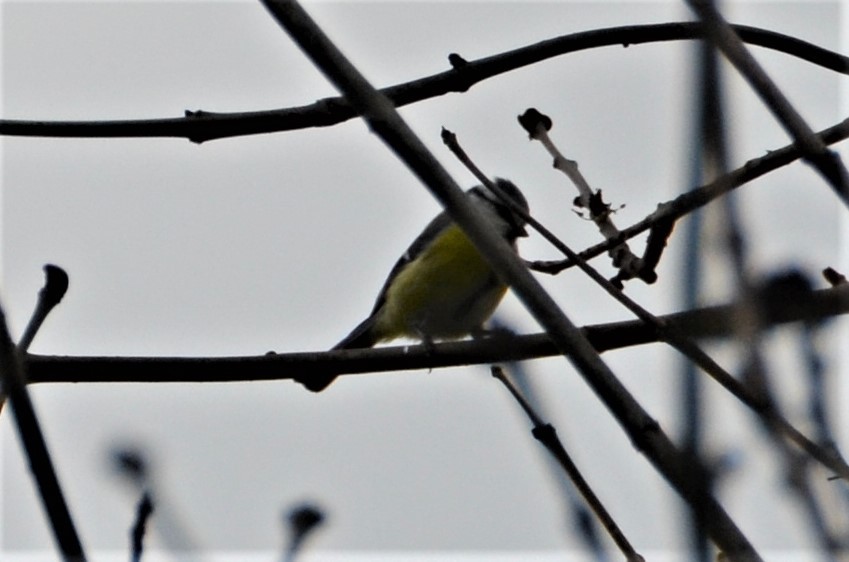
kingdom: Animalia
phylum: Chordata
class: Aves
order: Passeriformes
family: Paridae
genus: Cyanistes
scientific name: Cyanistes caeruleus
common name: Eurasian blue tit
